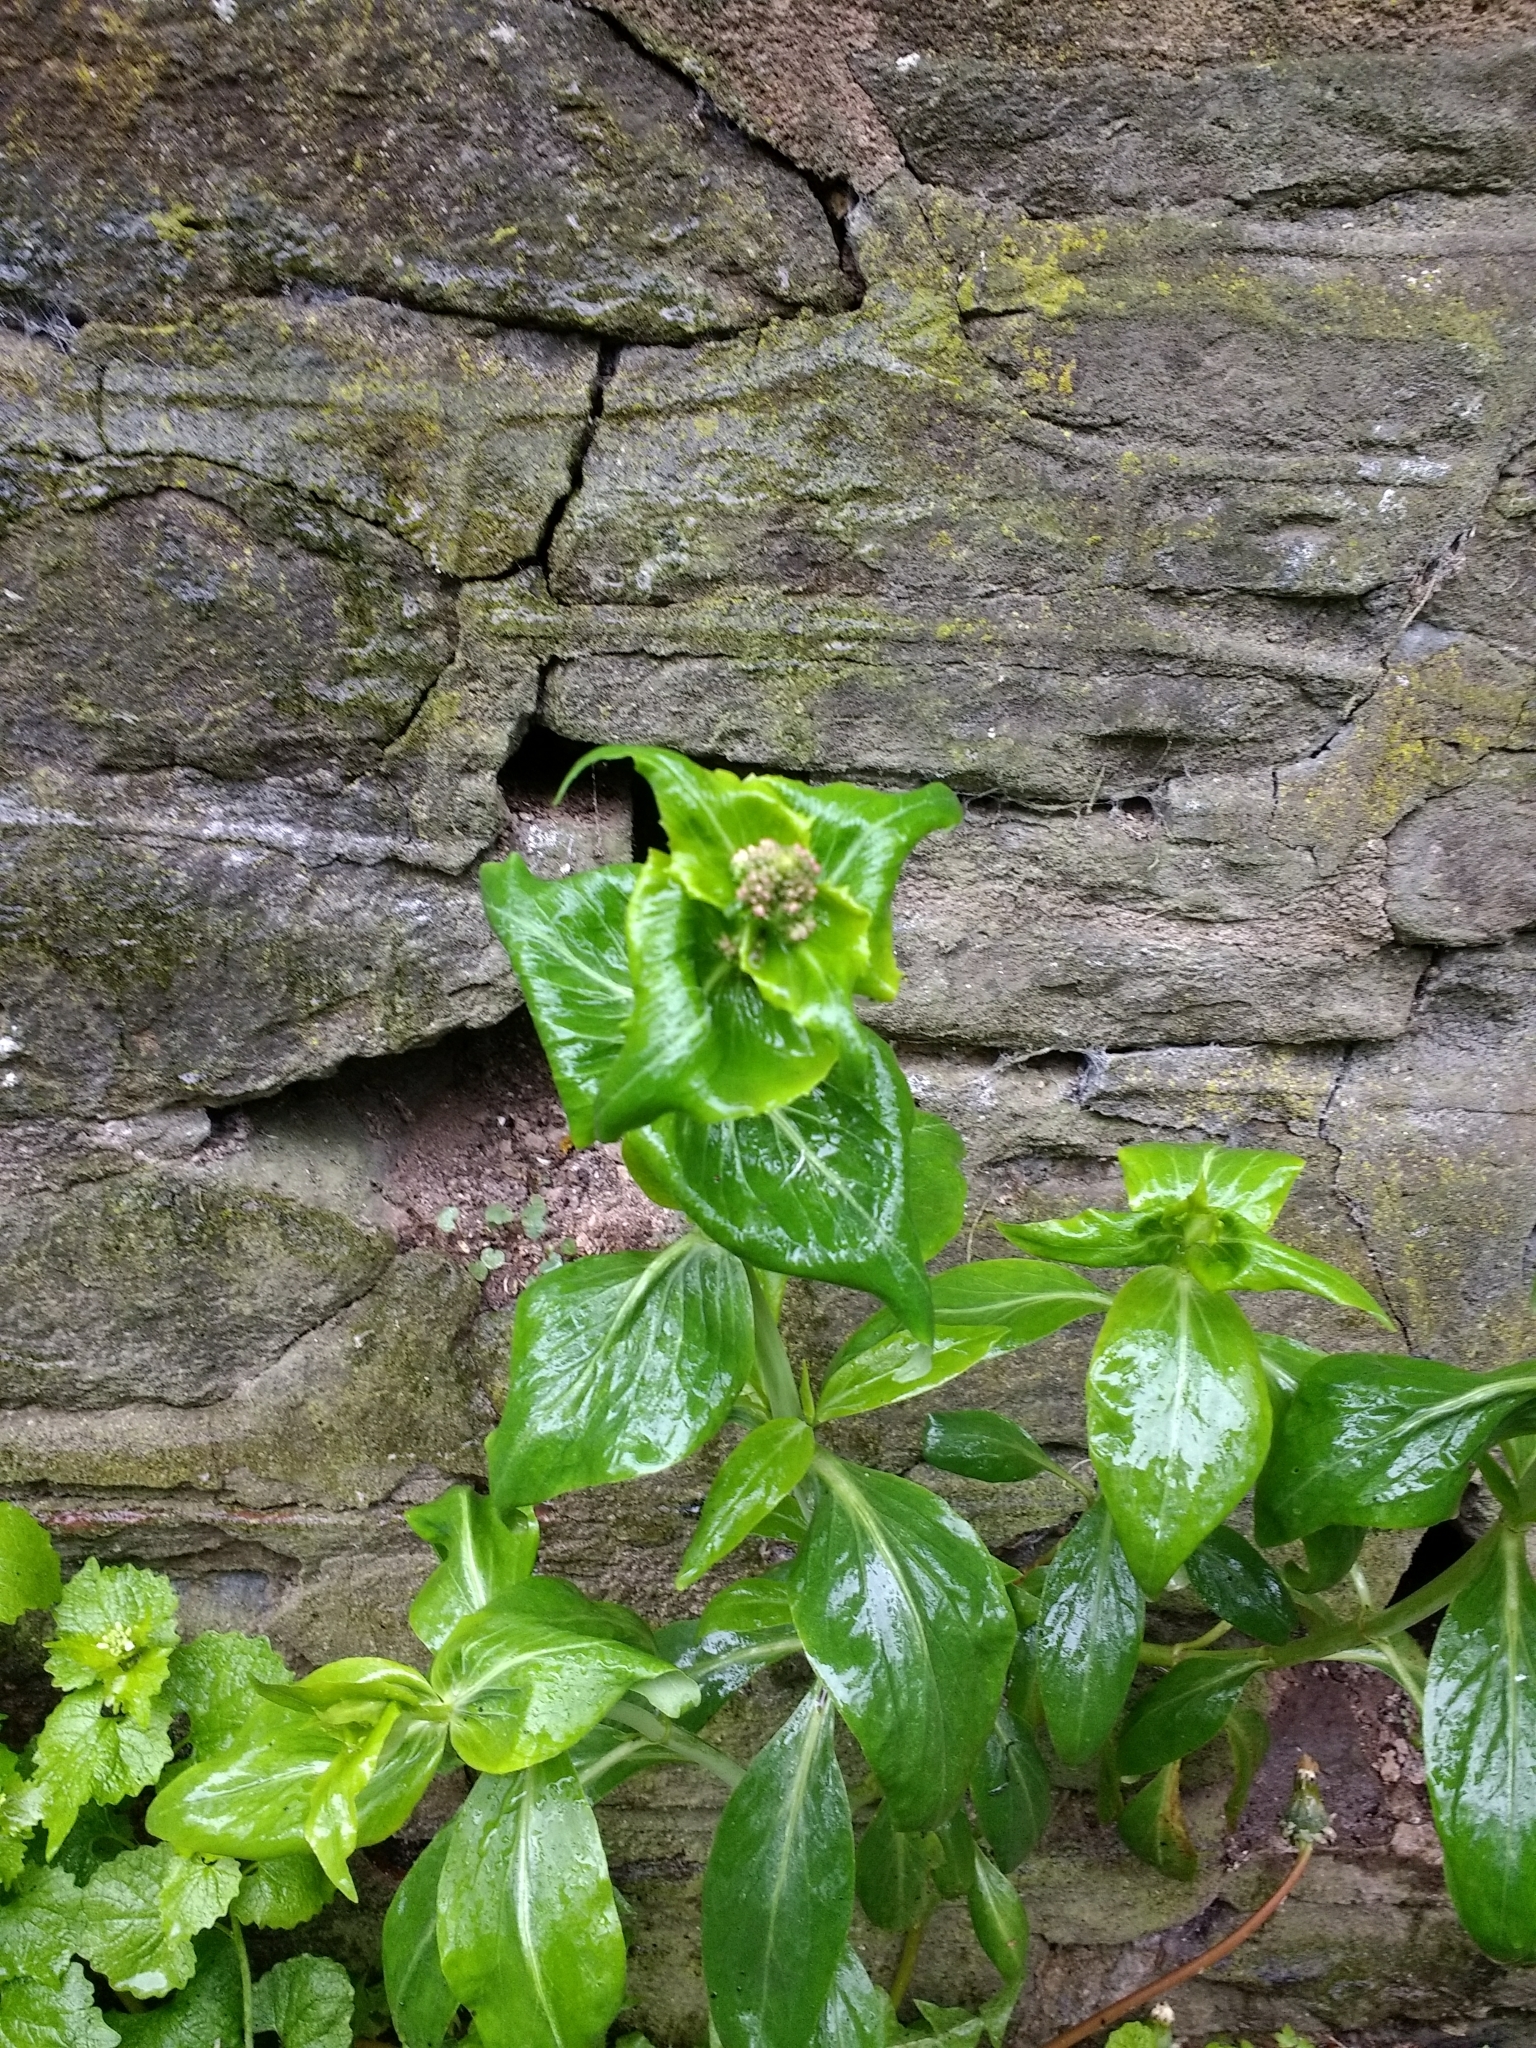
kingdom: Plantae
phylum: Tracheophyta
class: Magnoliopsida
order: Dipsacales
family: Caprifoliaceae
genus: Centranthus
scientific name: Centranthus ruber
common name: Red valerian
